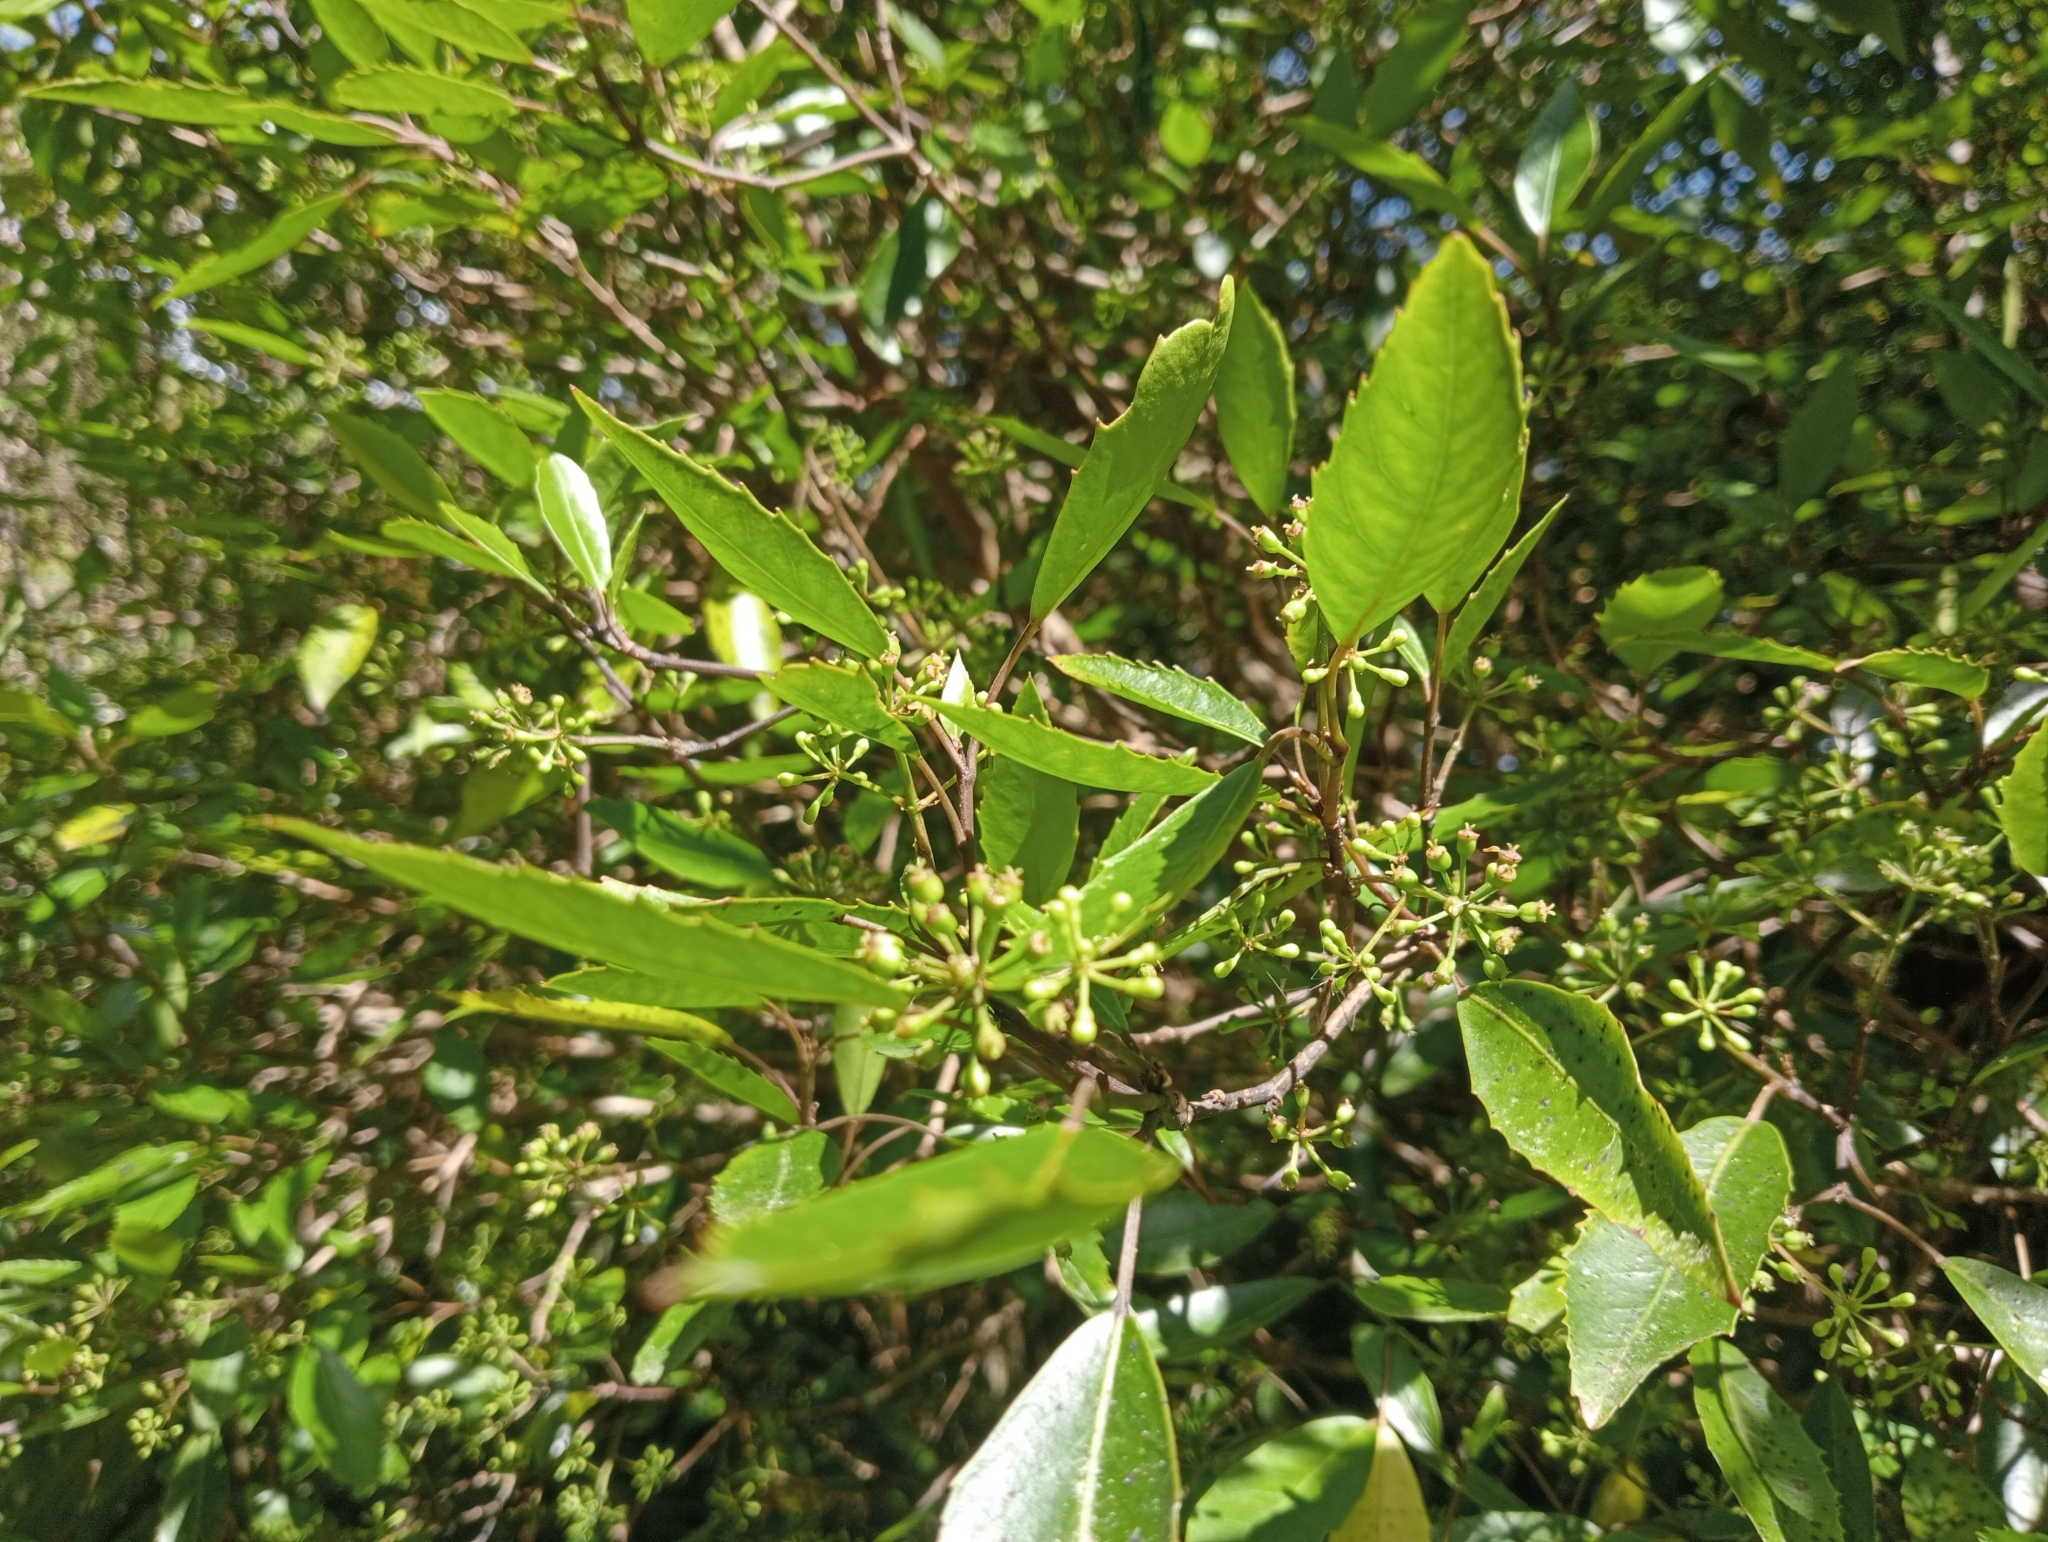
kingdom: Plantae
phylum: Tracheophyta
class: Magnoliopsida
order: Apiales
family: Araliaceae
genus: Raukaua
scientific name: Raukaua simplex
